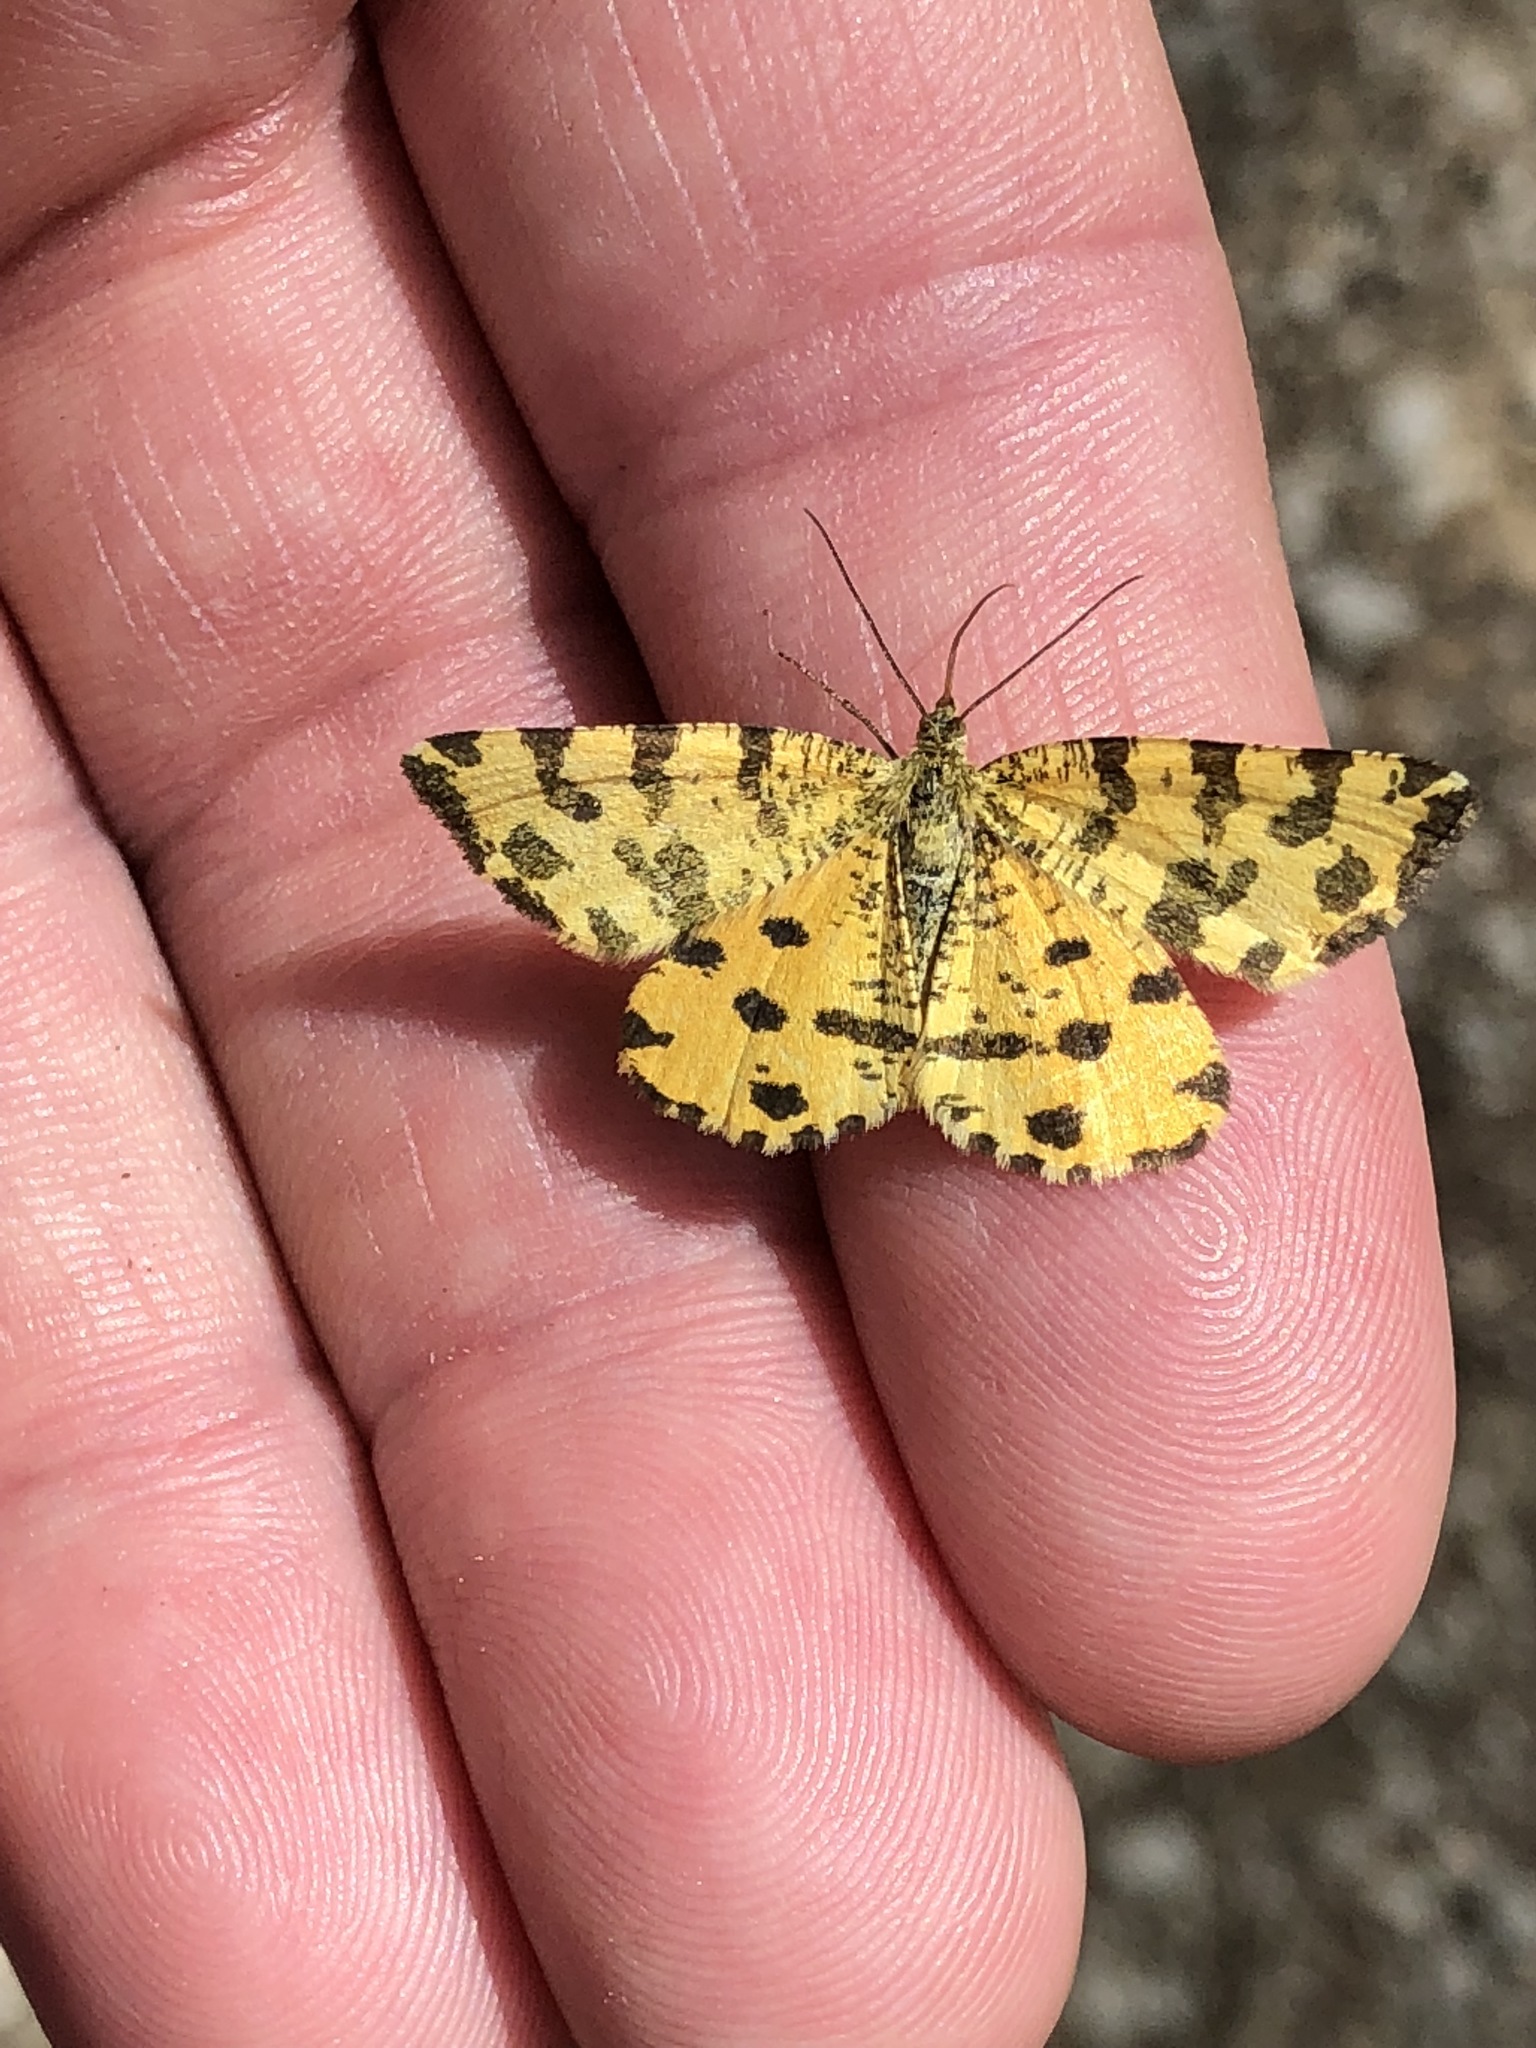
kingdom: Animalia
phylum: Arthropoda
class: Insecta
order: Lepidoptera
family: Geometridae
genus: Pseudopanthera
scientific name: Pseudopanthera macularia
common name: Speckled yellow
